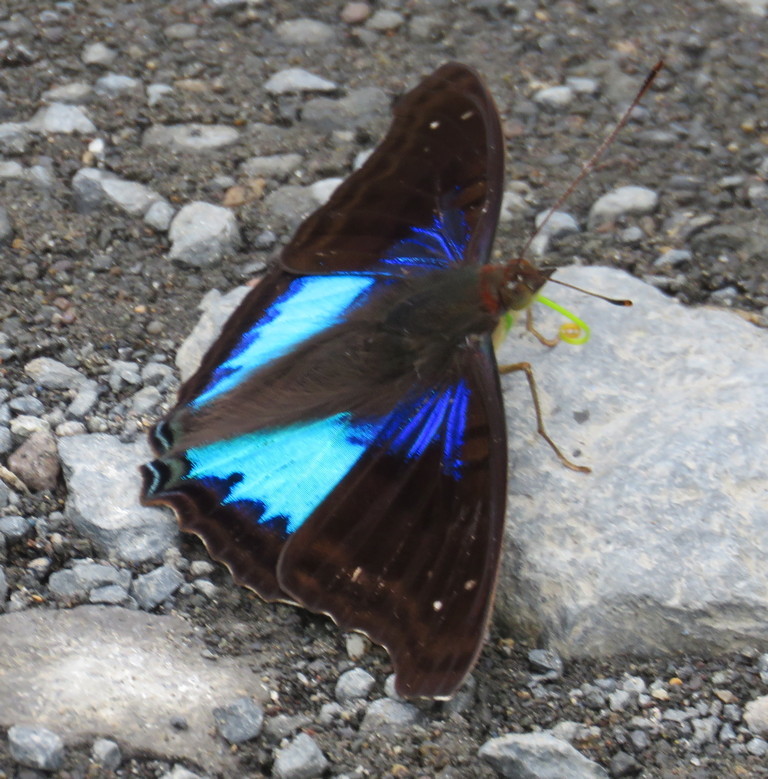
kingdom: Animalia
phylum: Arthropoda
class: Insecta
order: Lepidoptera
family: Nymphalidae
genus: Doxocopa
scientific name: Doxocopa cyane
